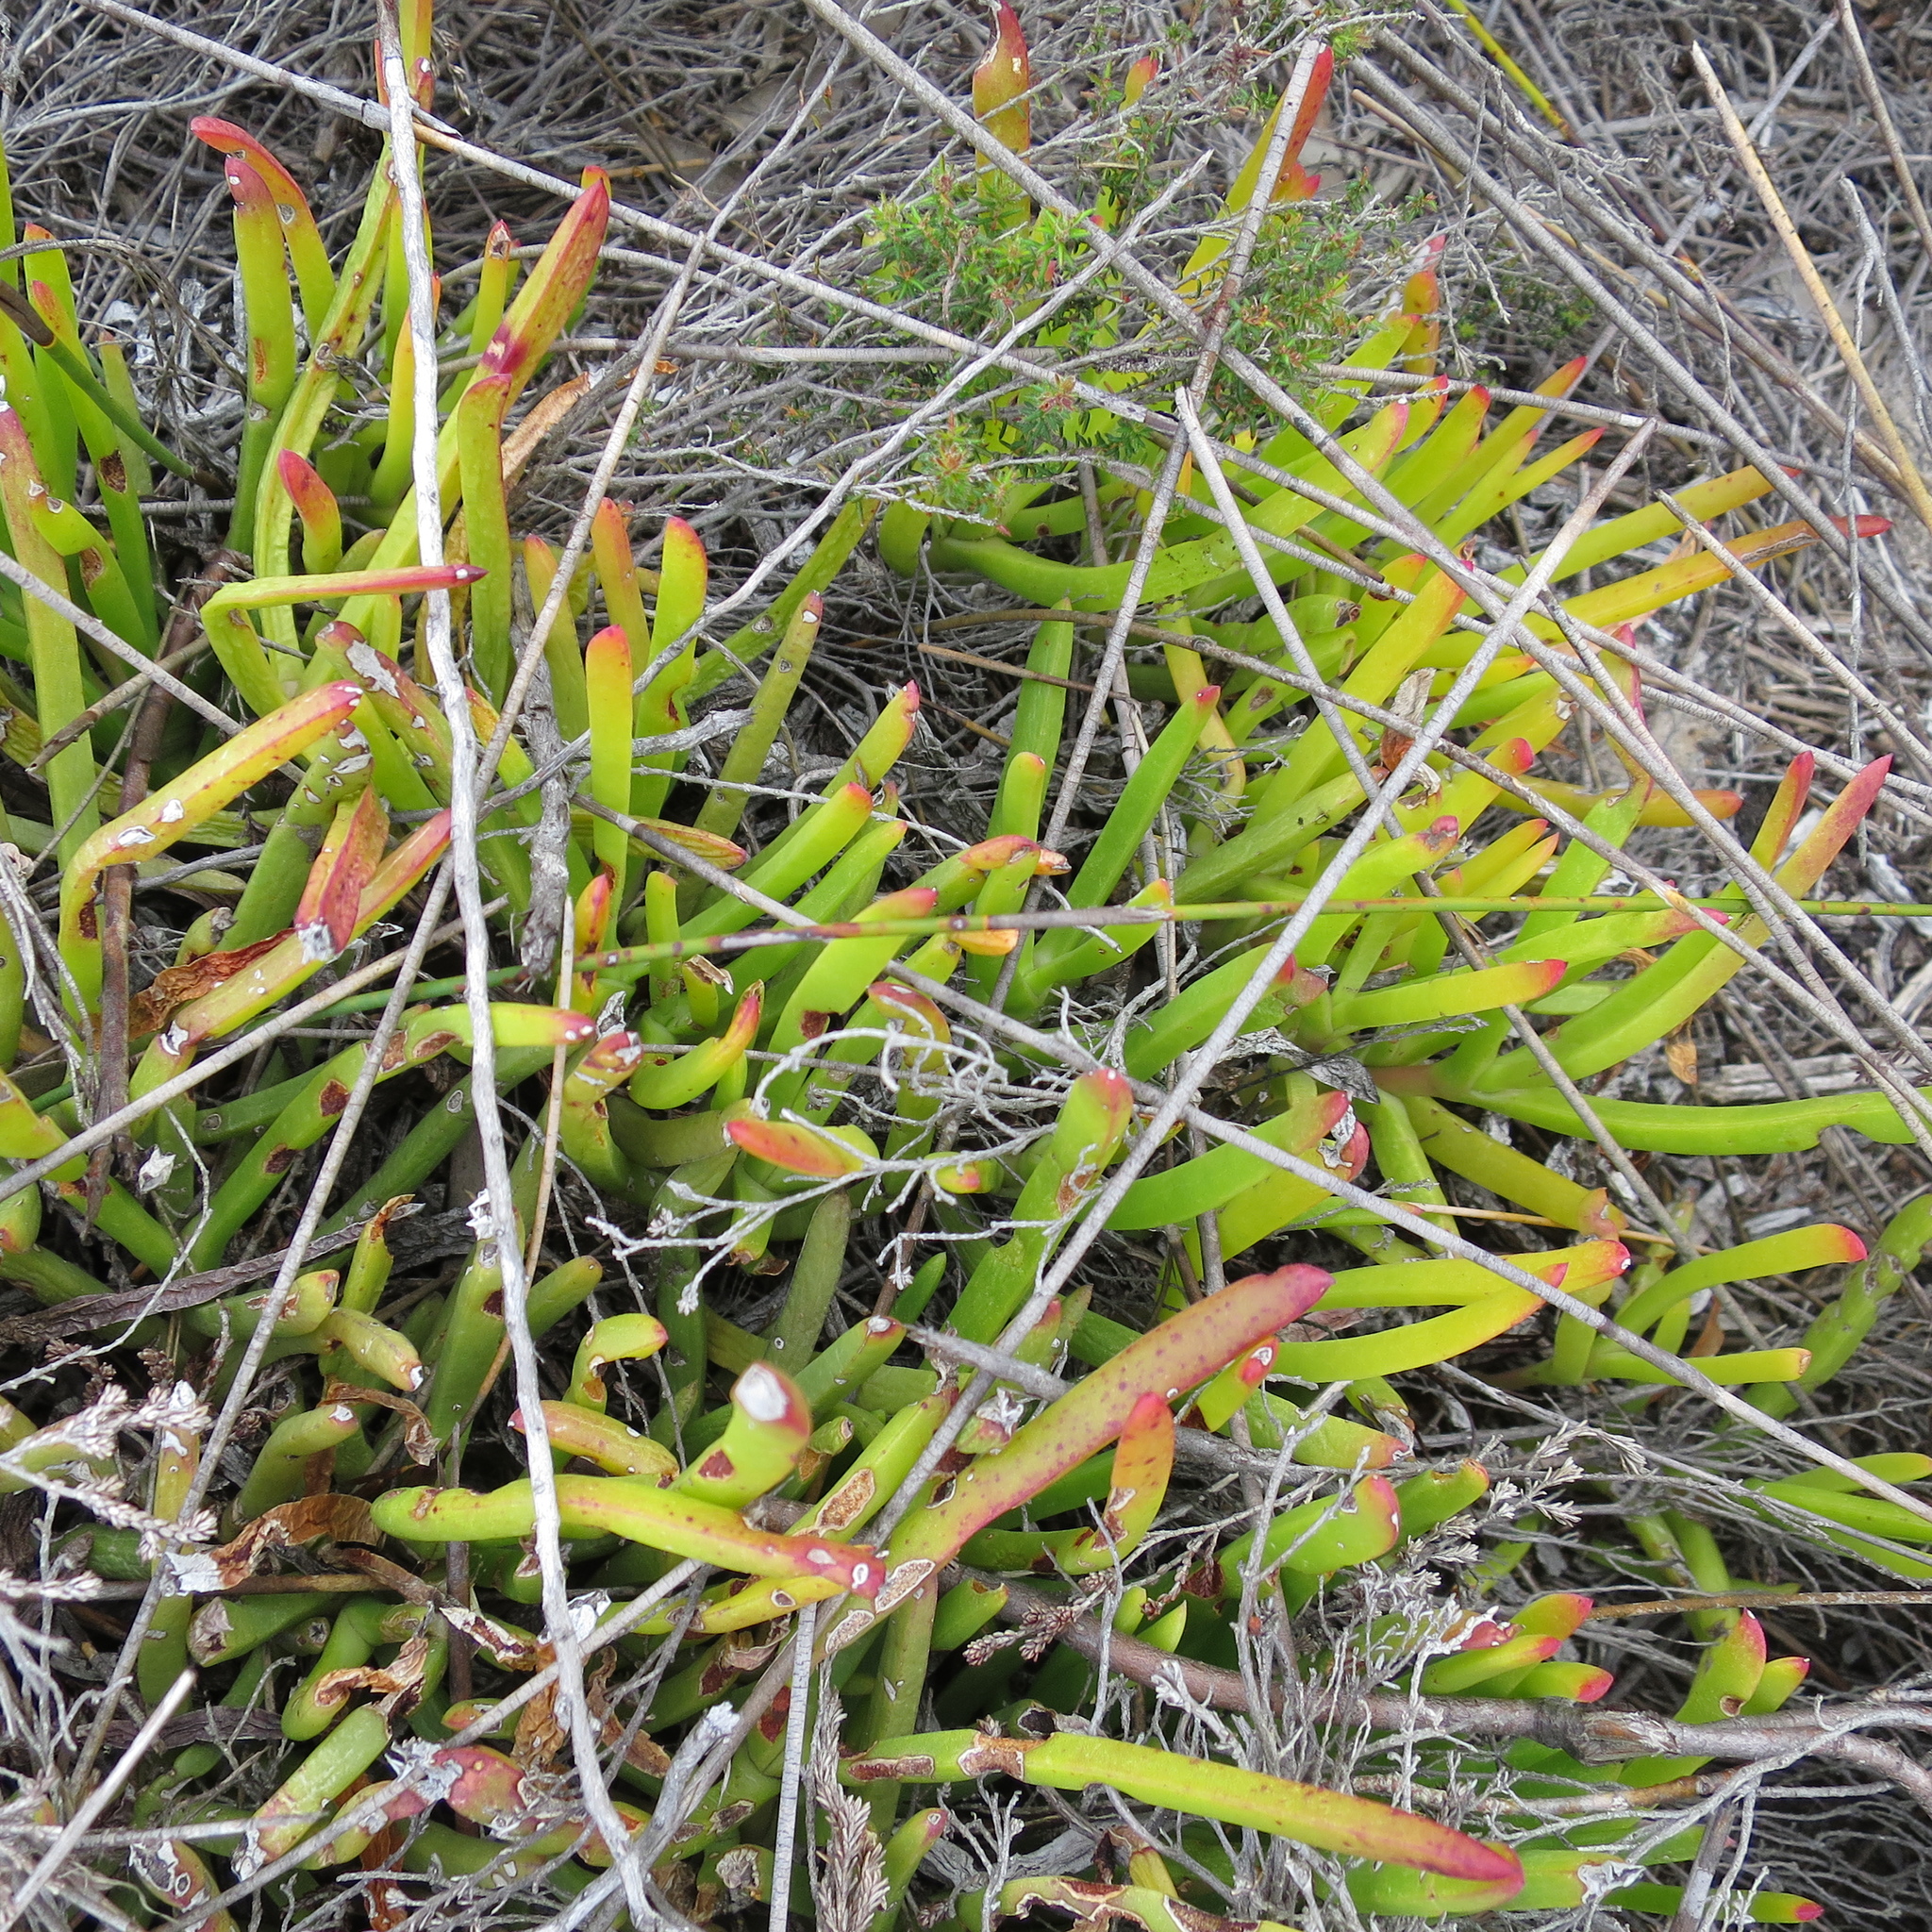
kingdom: Plantae
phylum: Tracheophyta
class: Magnoliopsida
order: Caryophyllales
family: Aizoaceae
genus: Carpobrotus
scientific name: Carpobrotus muirii
